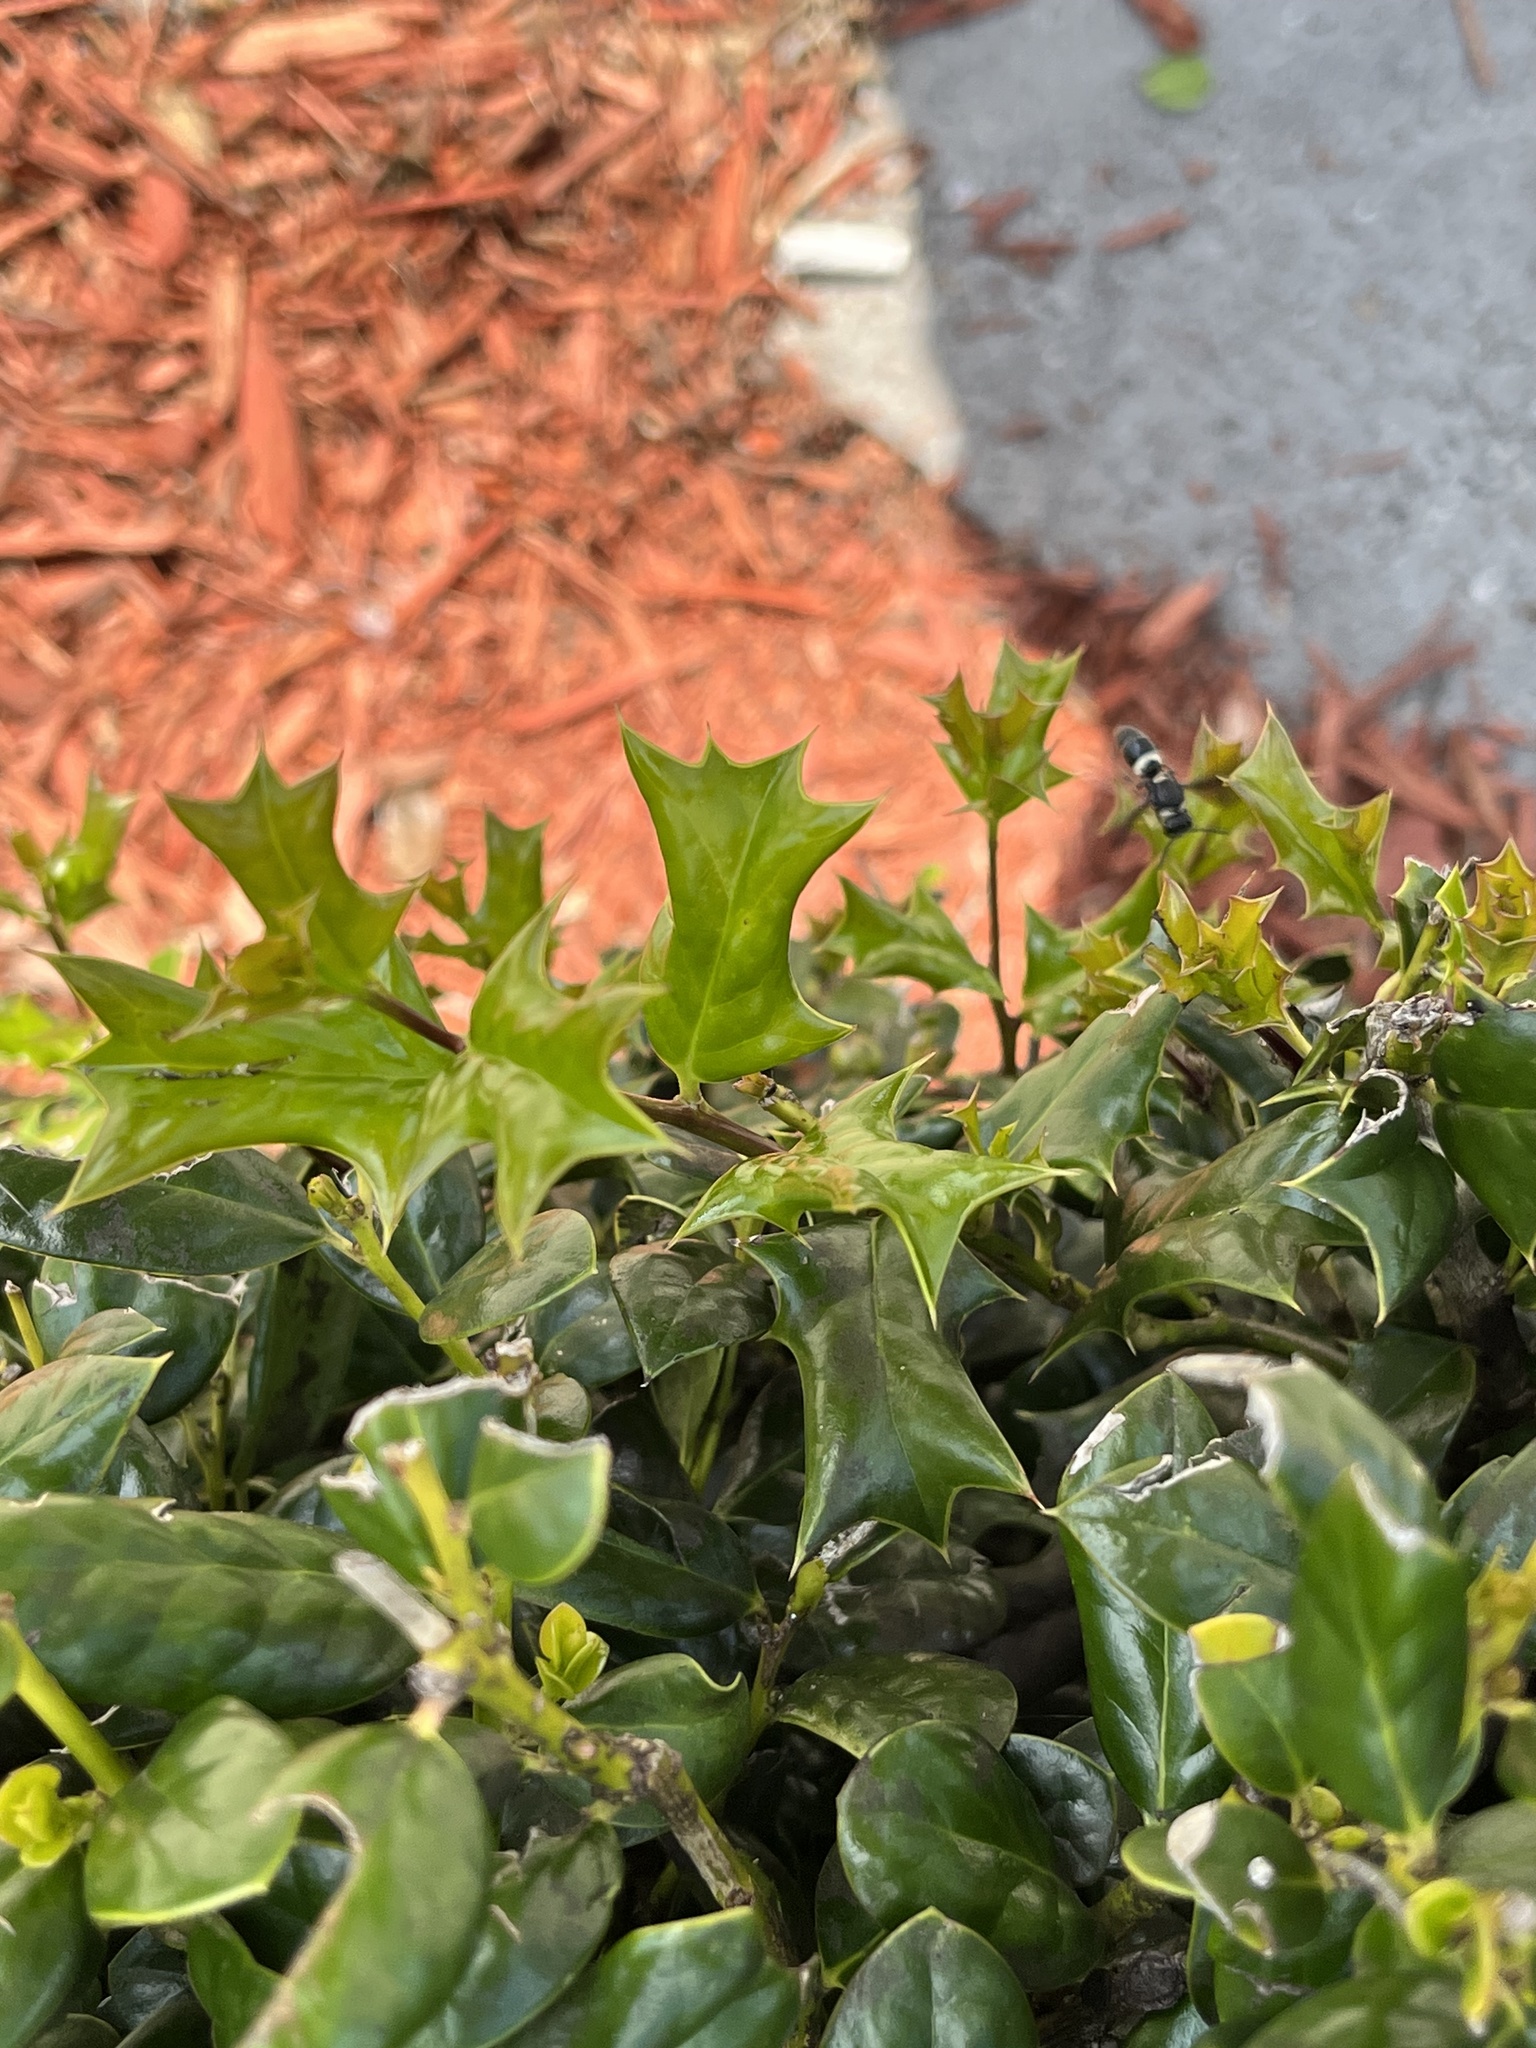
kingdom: Animalia
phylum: Arthropoda
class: Insecta
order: Hymenoptera
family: Eumenidae
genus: Monobia
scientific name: Monobia quadridens
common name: Four-toothed mason wasp
